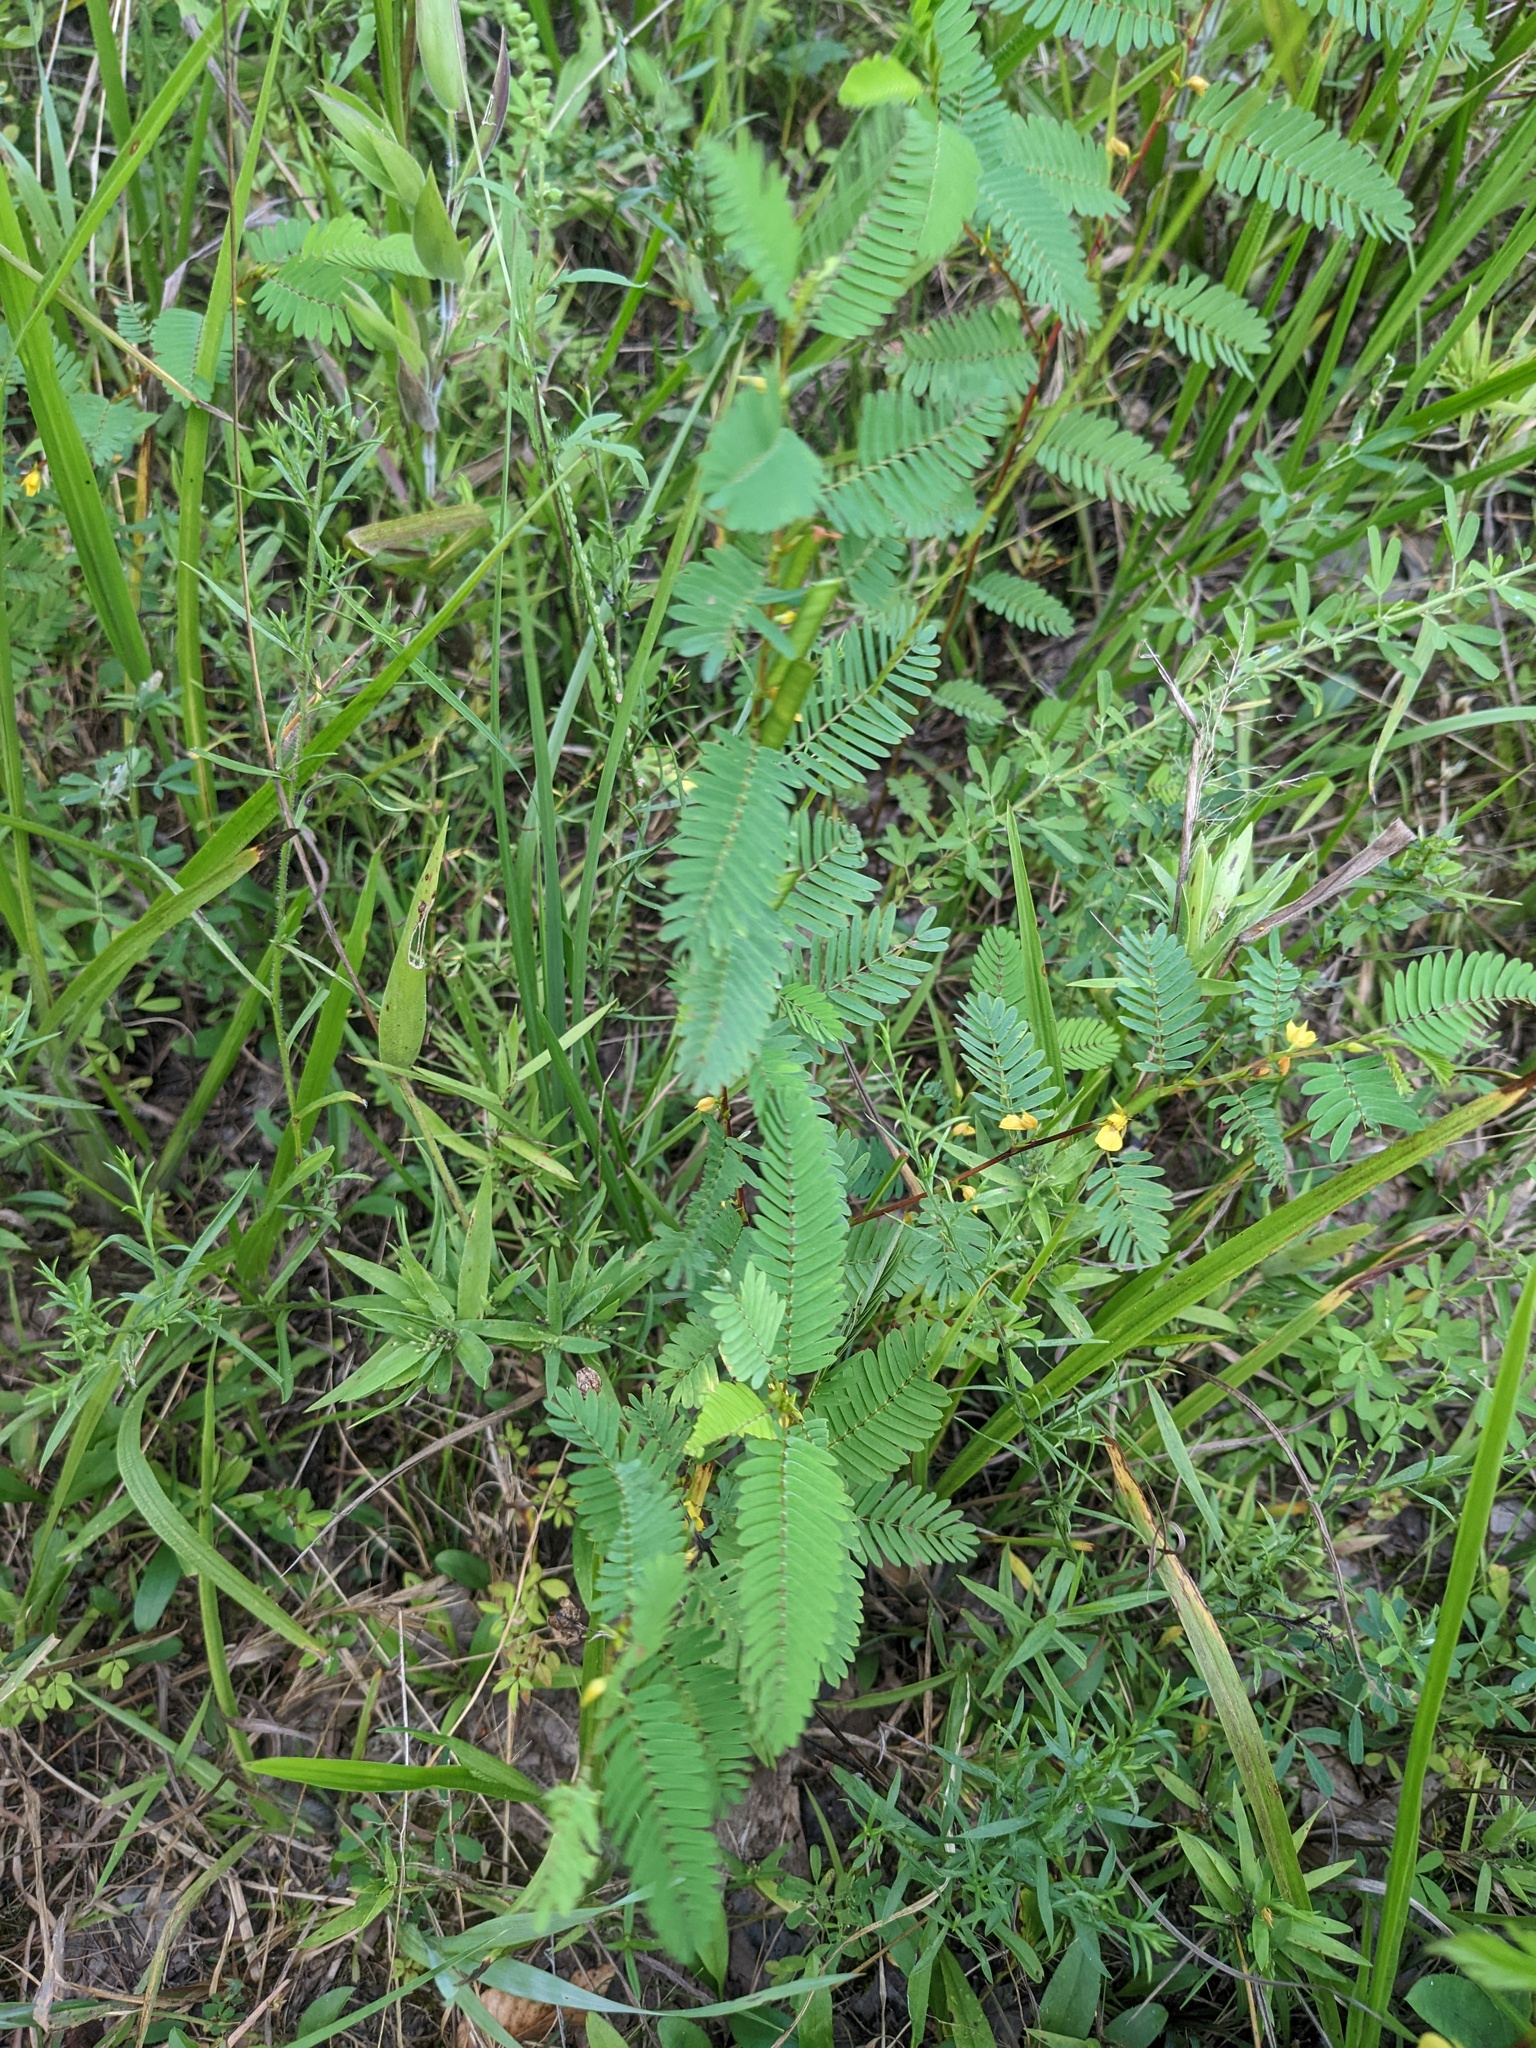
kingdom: Plantae
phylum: Tracheophyta
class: Magnoliopsida
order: Fabales
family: Fabaceae
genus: Chamaecrista
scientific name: Chamaecrista nictitans
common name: Sensitive cassia
